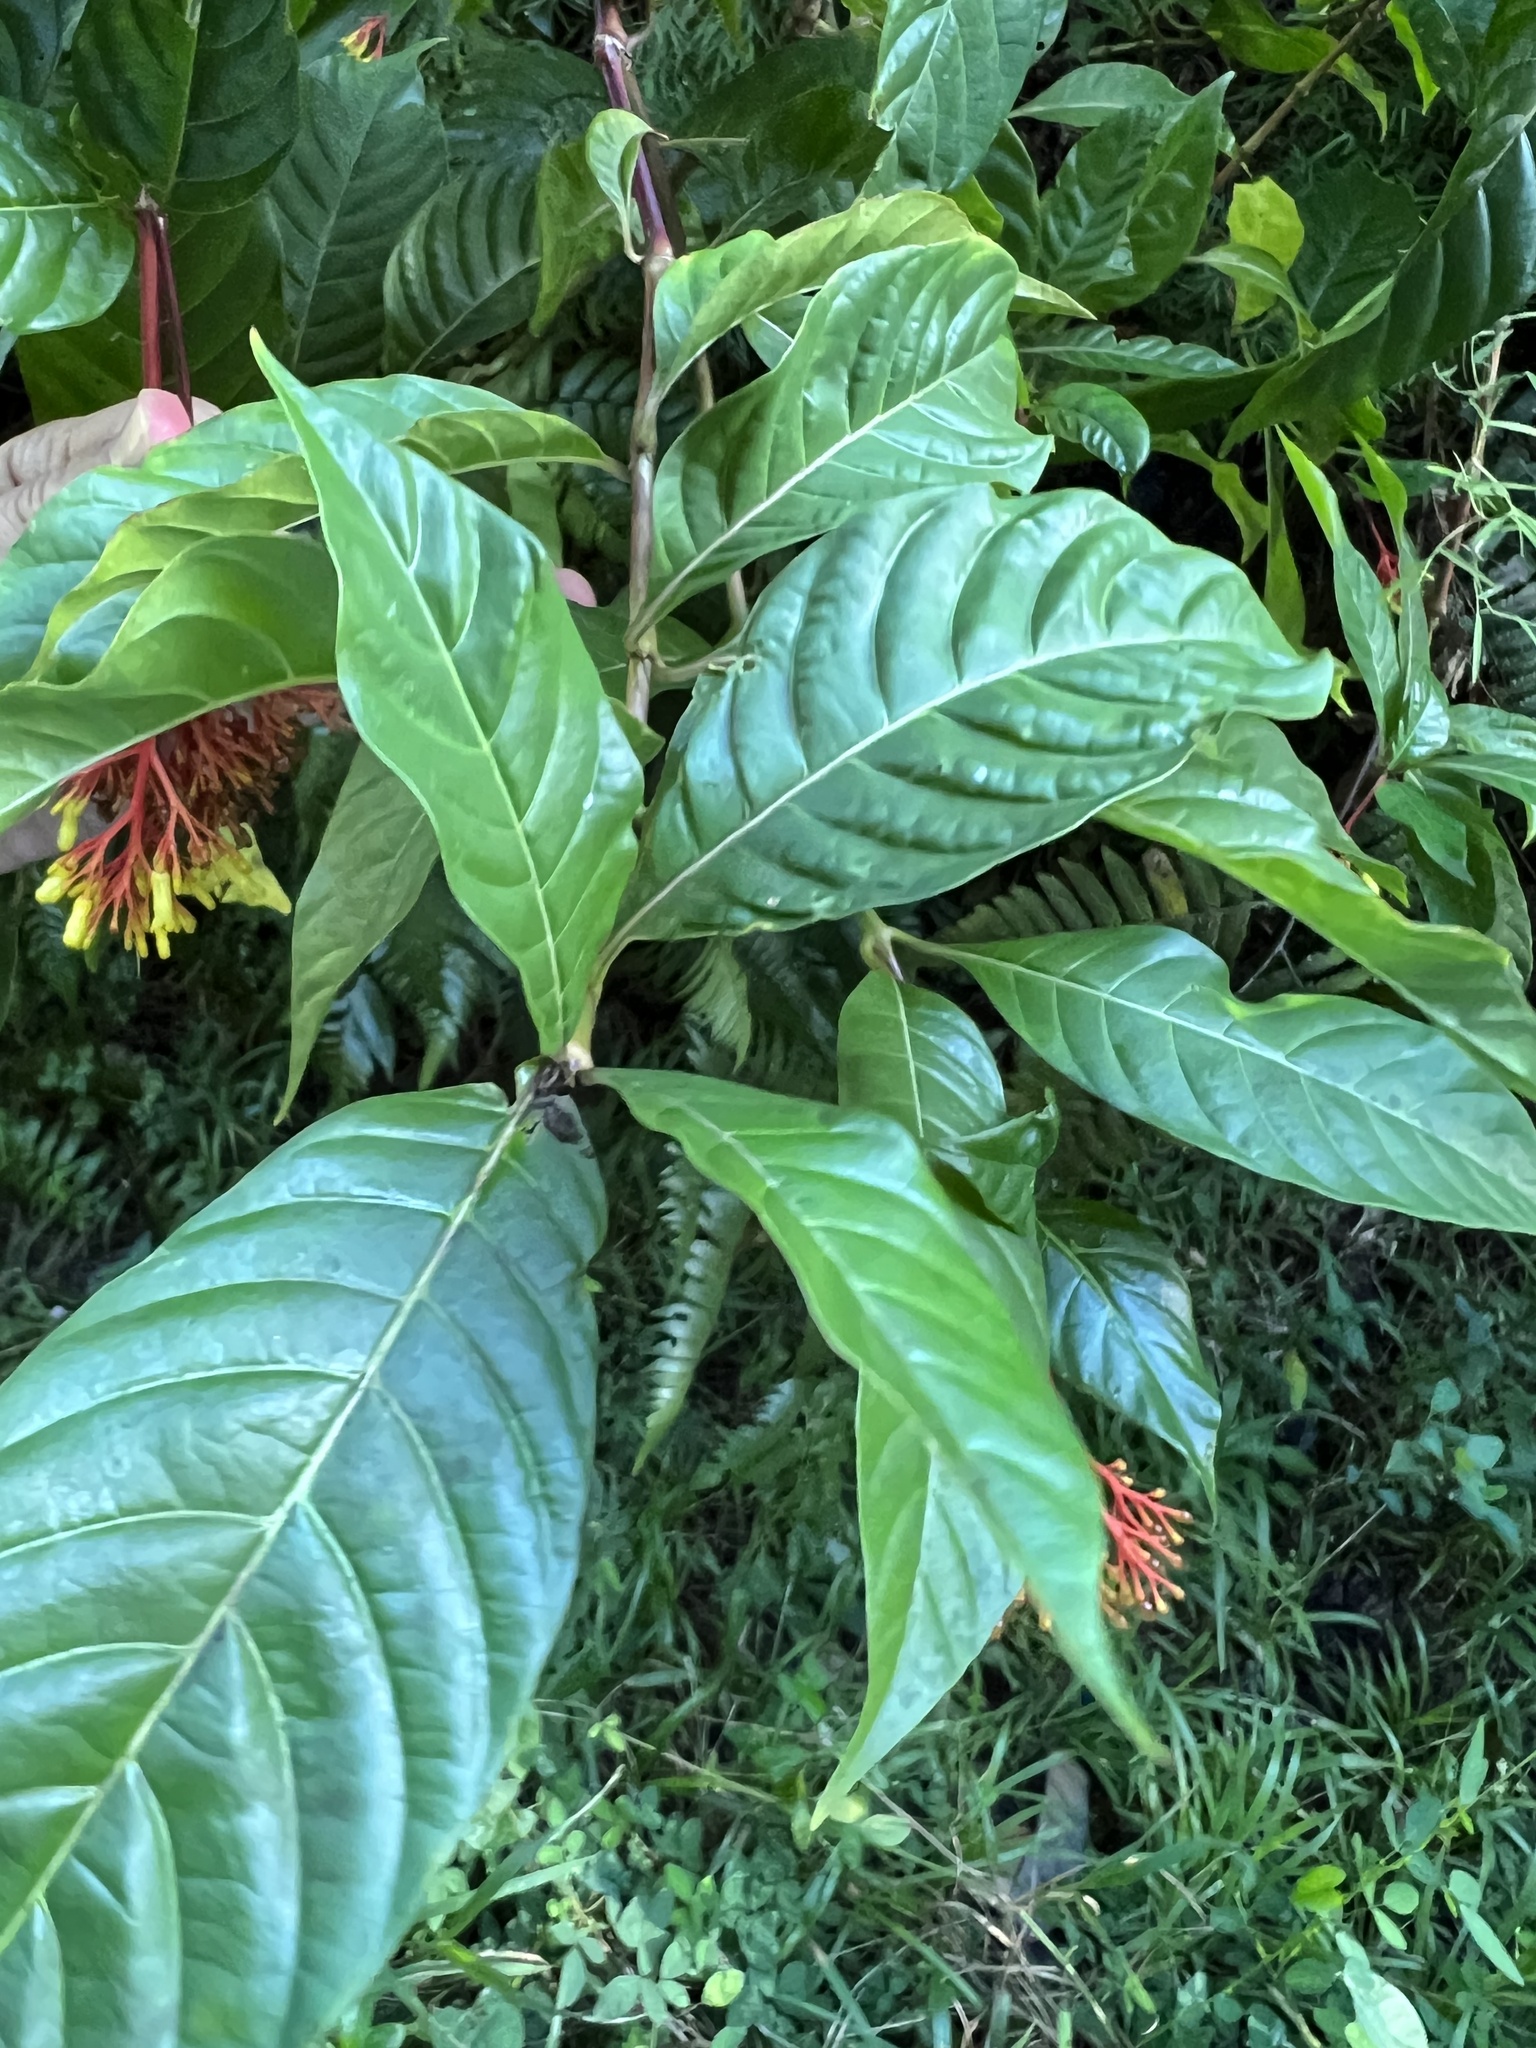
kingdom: Plantae
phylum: Tracheophyta
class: Magnoliopsida
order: Gentianales
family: Rubiaceae
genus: Palicourea
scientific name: Palicourea croceoides
